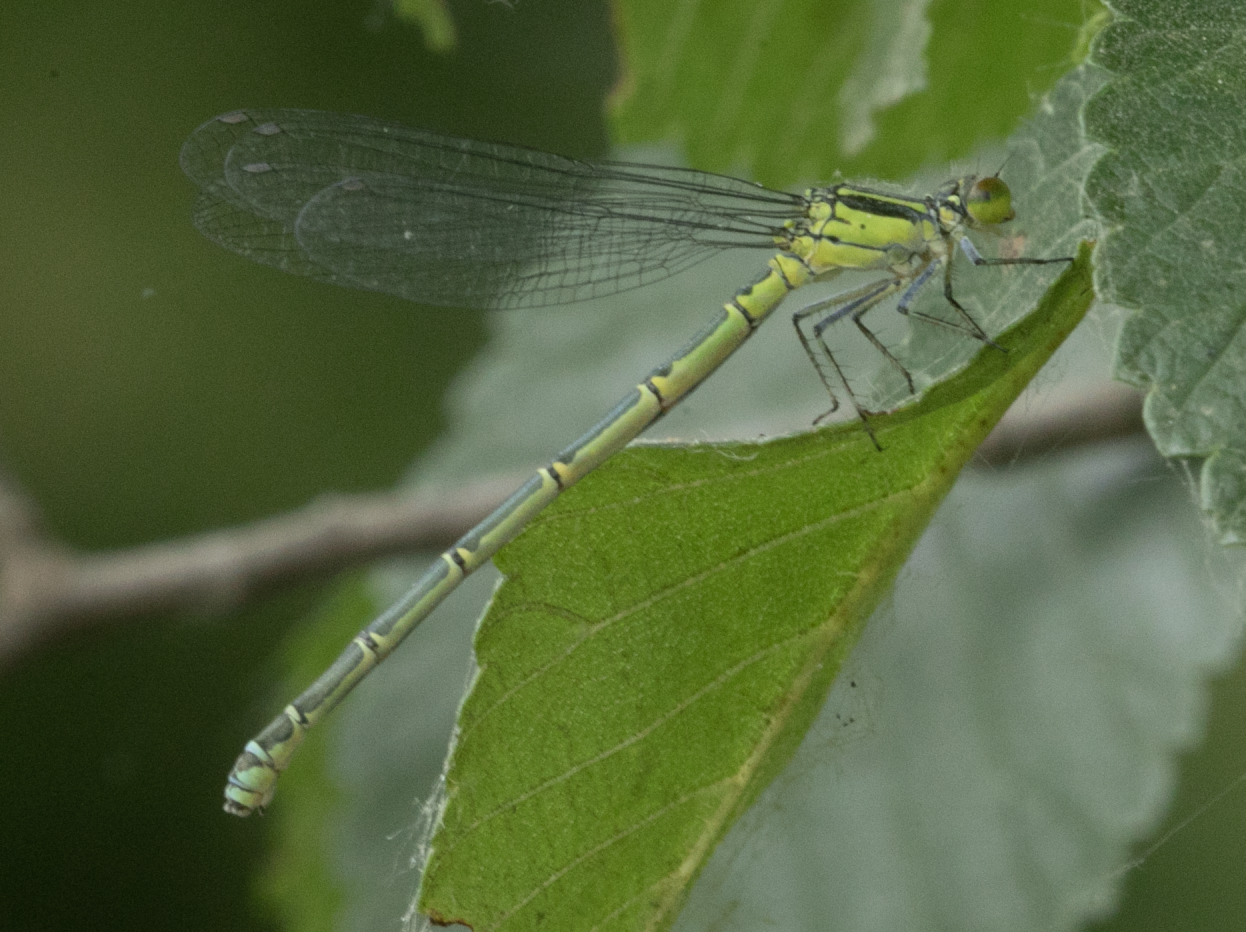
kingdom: Animalia
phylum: Arthropoda
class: Insecta
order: Odonata
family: Coenagrionidae
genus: Erythromma
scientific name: Erythromma viridulum
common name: Small red-eyed damselfly
